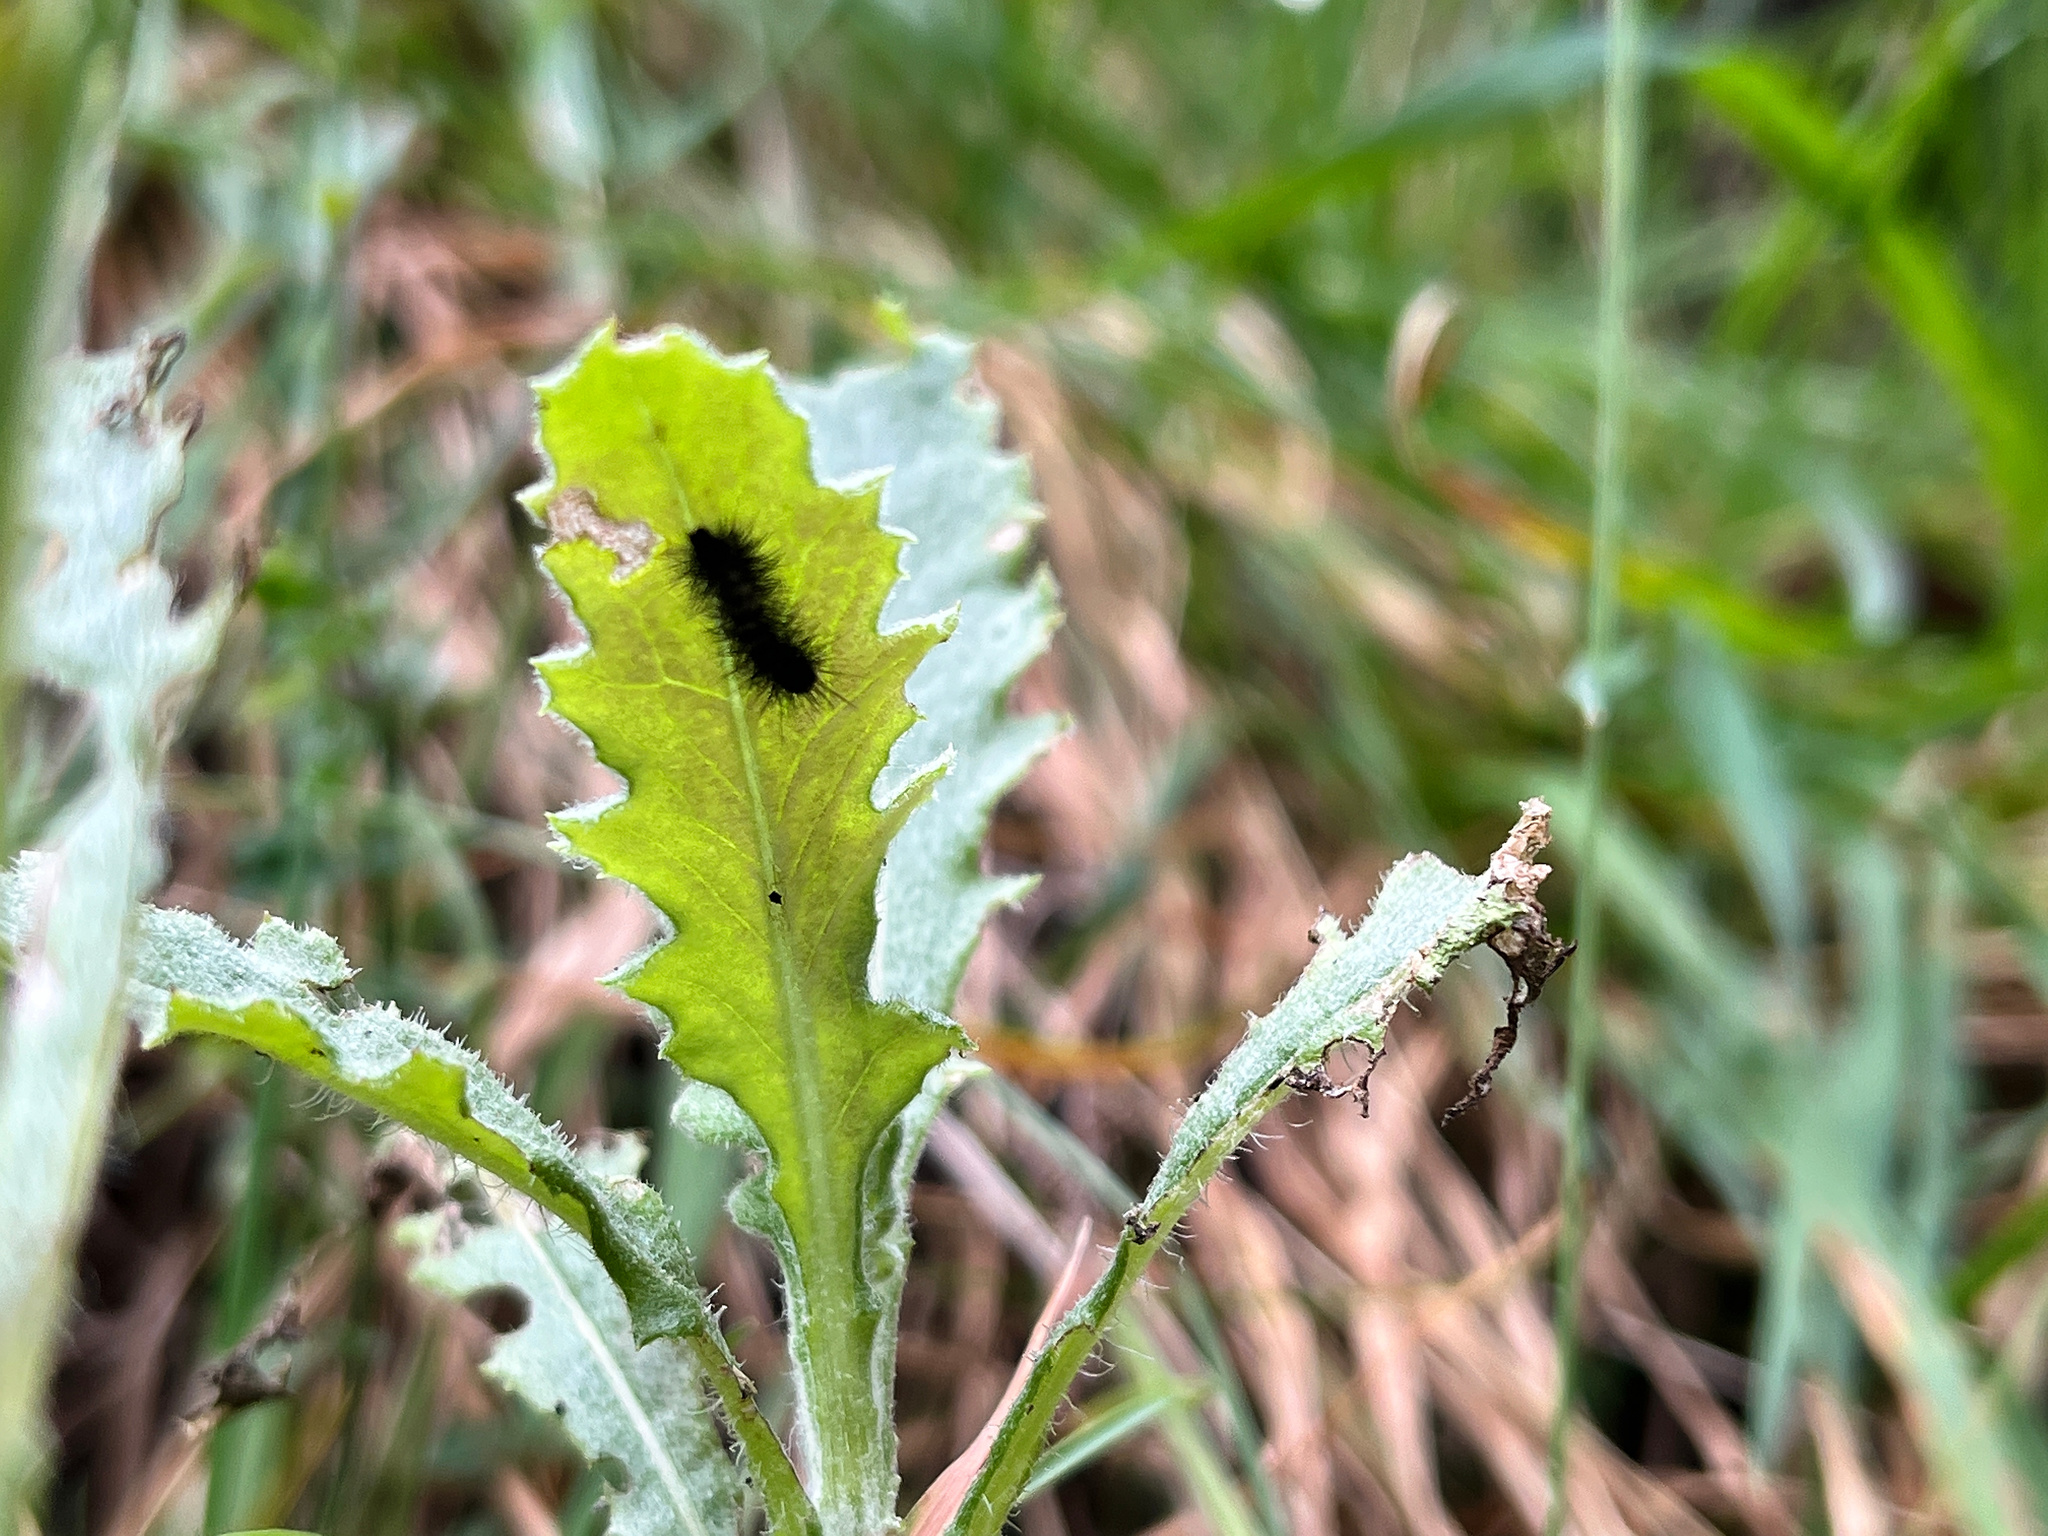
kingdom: Animalia
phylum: Arthropoda
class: Insecta
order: Lepidoptera
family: Erebidae
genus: Nyctemera
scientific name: Nyctemera annulatum
